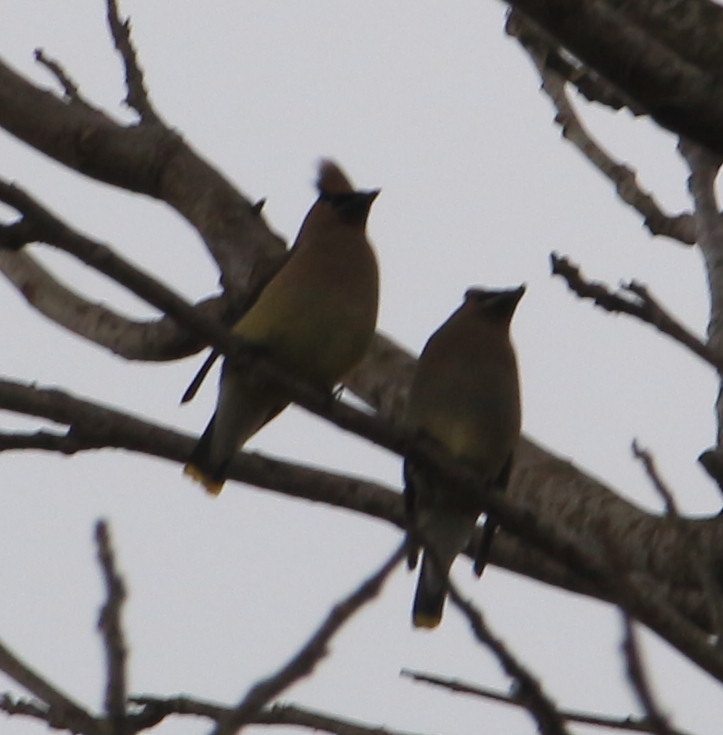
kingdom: Animalia
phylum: Chordata
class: Aves
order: Passeriformes
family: Bombycillidae
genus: Bombycilla
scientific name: Bombycilla cedrorum
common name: Cedar waxwing
